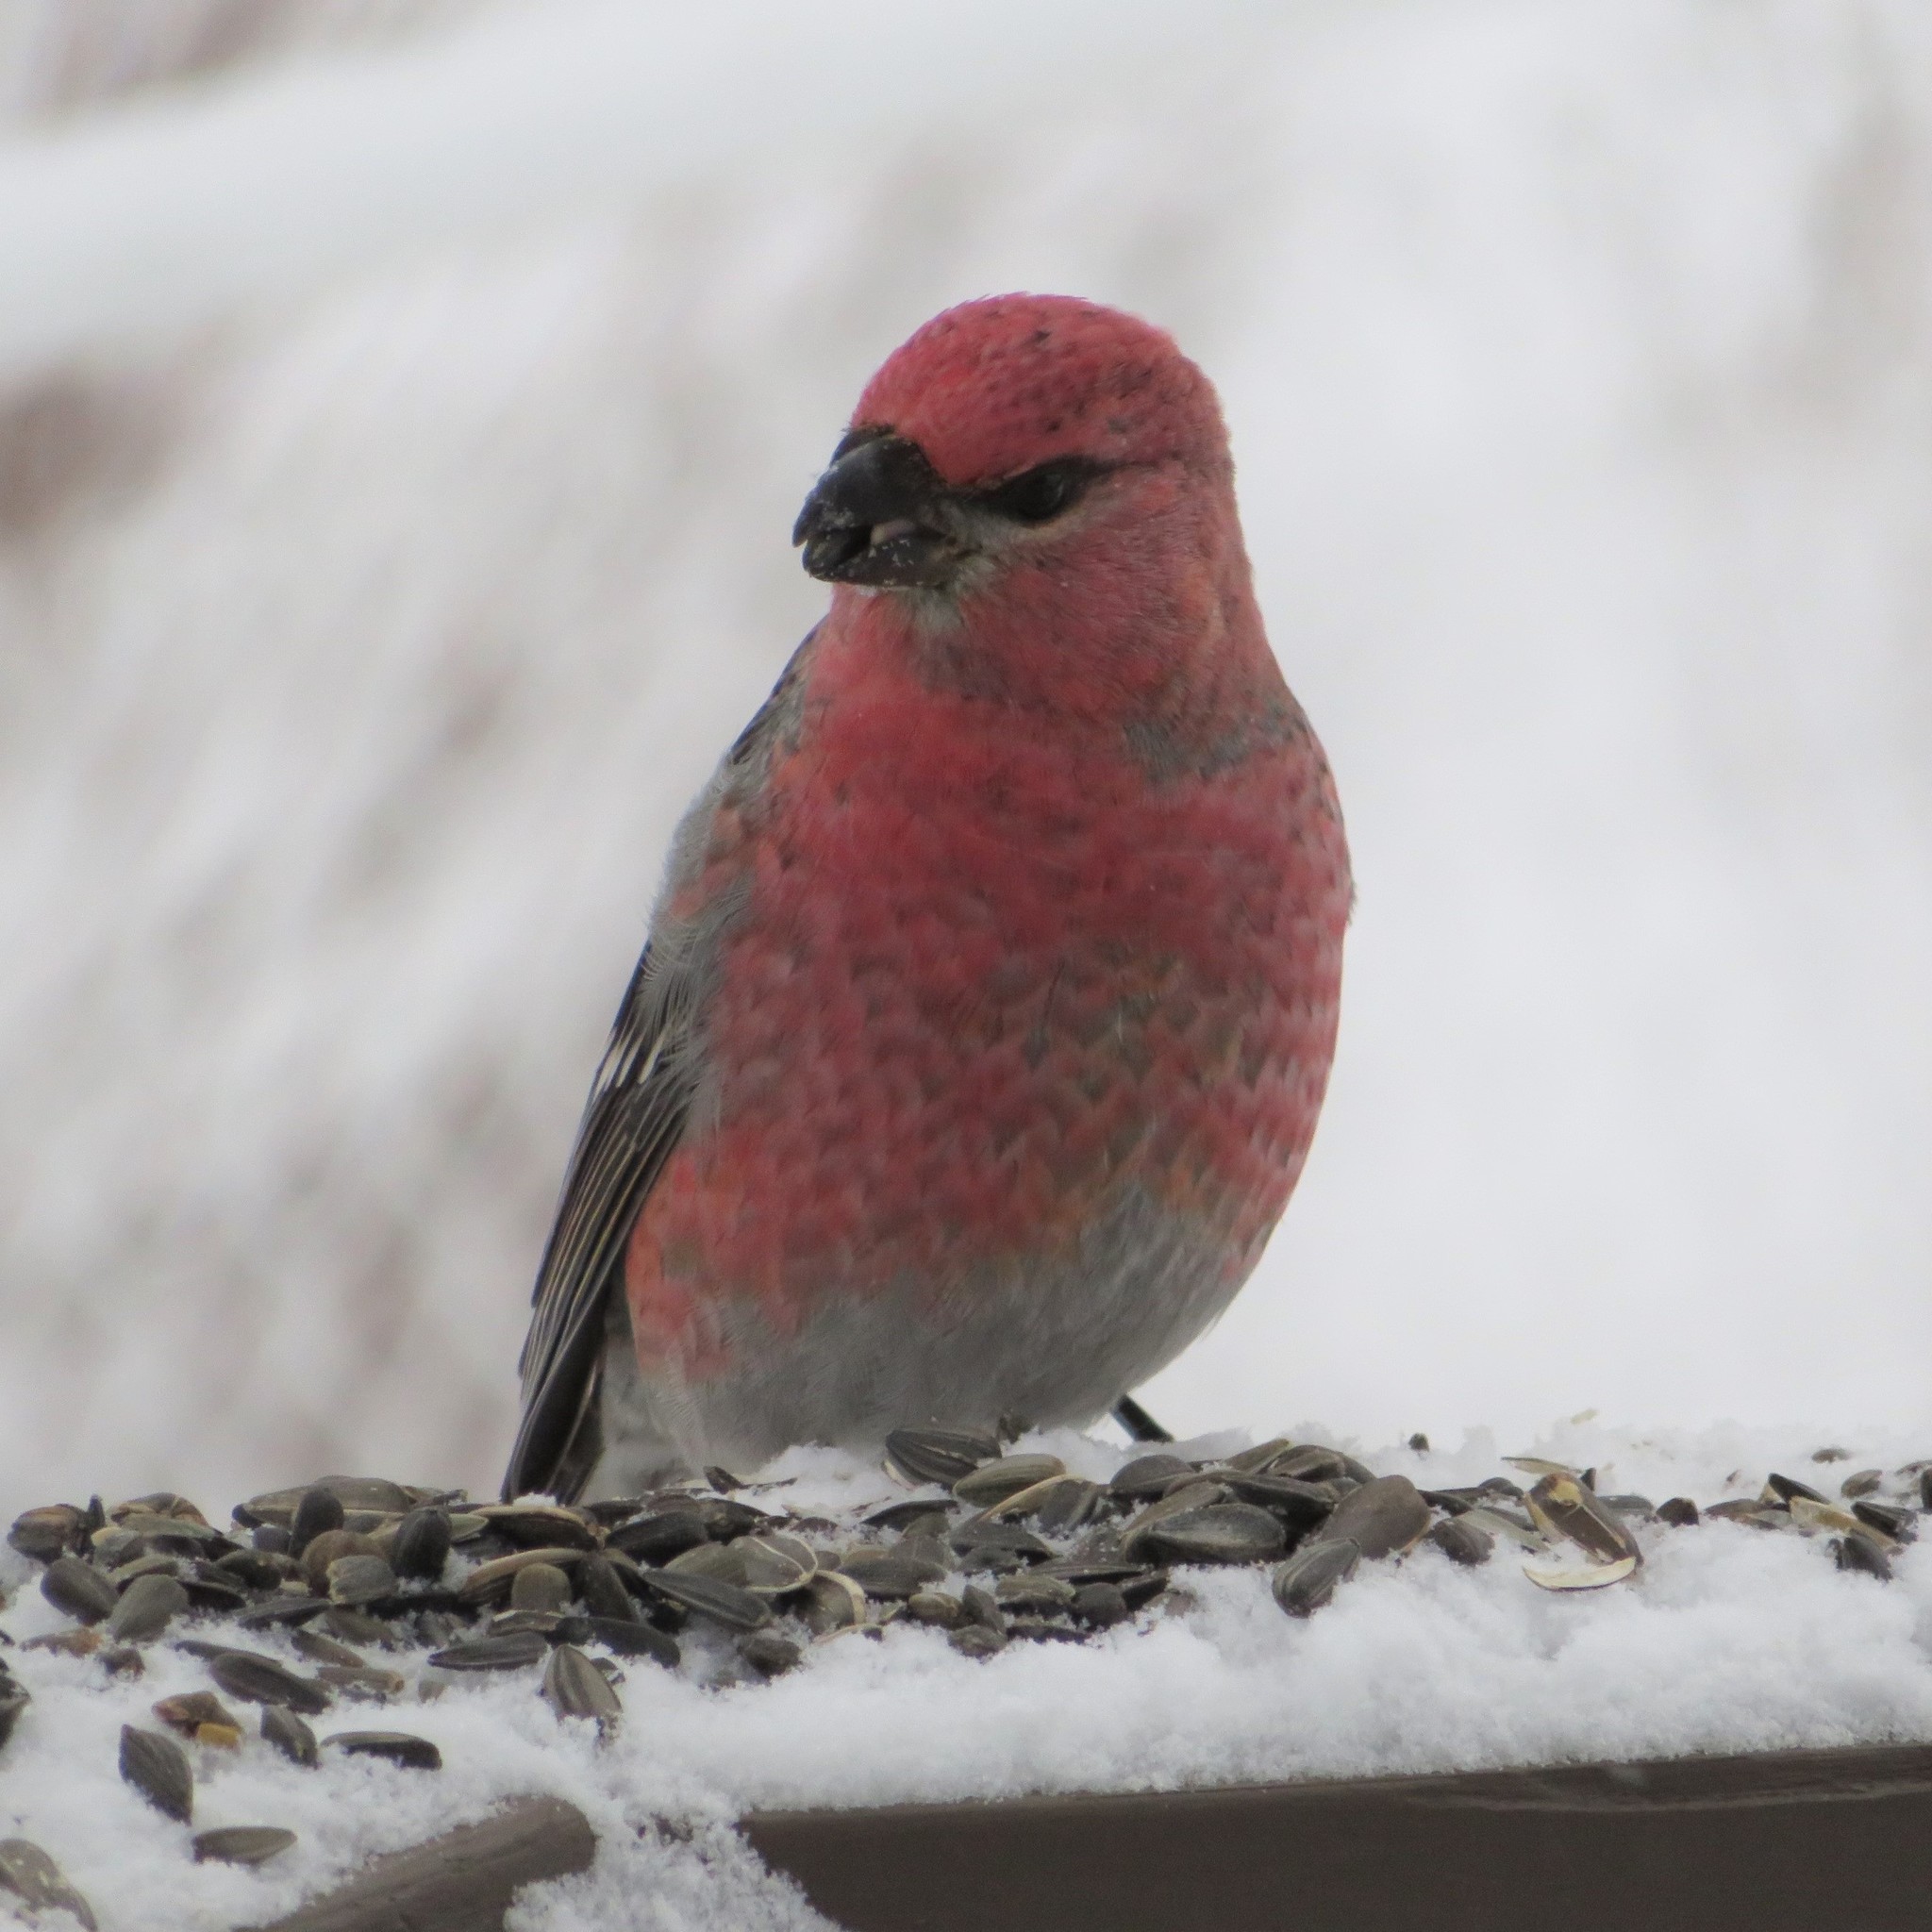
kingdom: Animalia
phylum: Chordata
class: Aves
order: Passeriformes
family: Fringillidae
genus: Pinicola
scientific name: Pinicola enucleator
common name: Pine grosbeak
